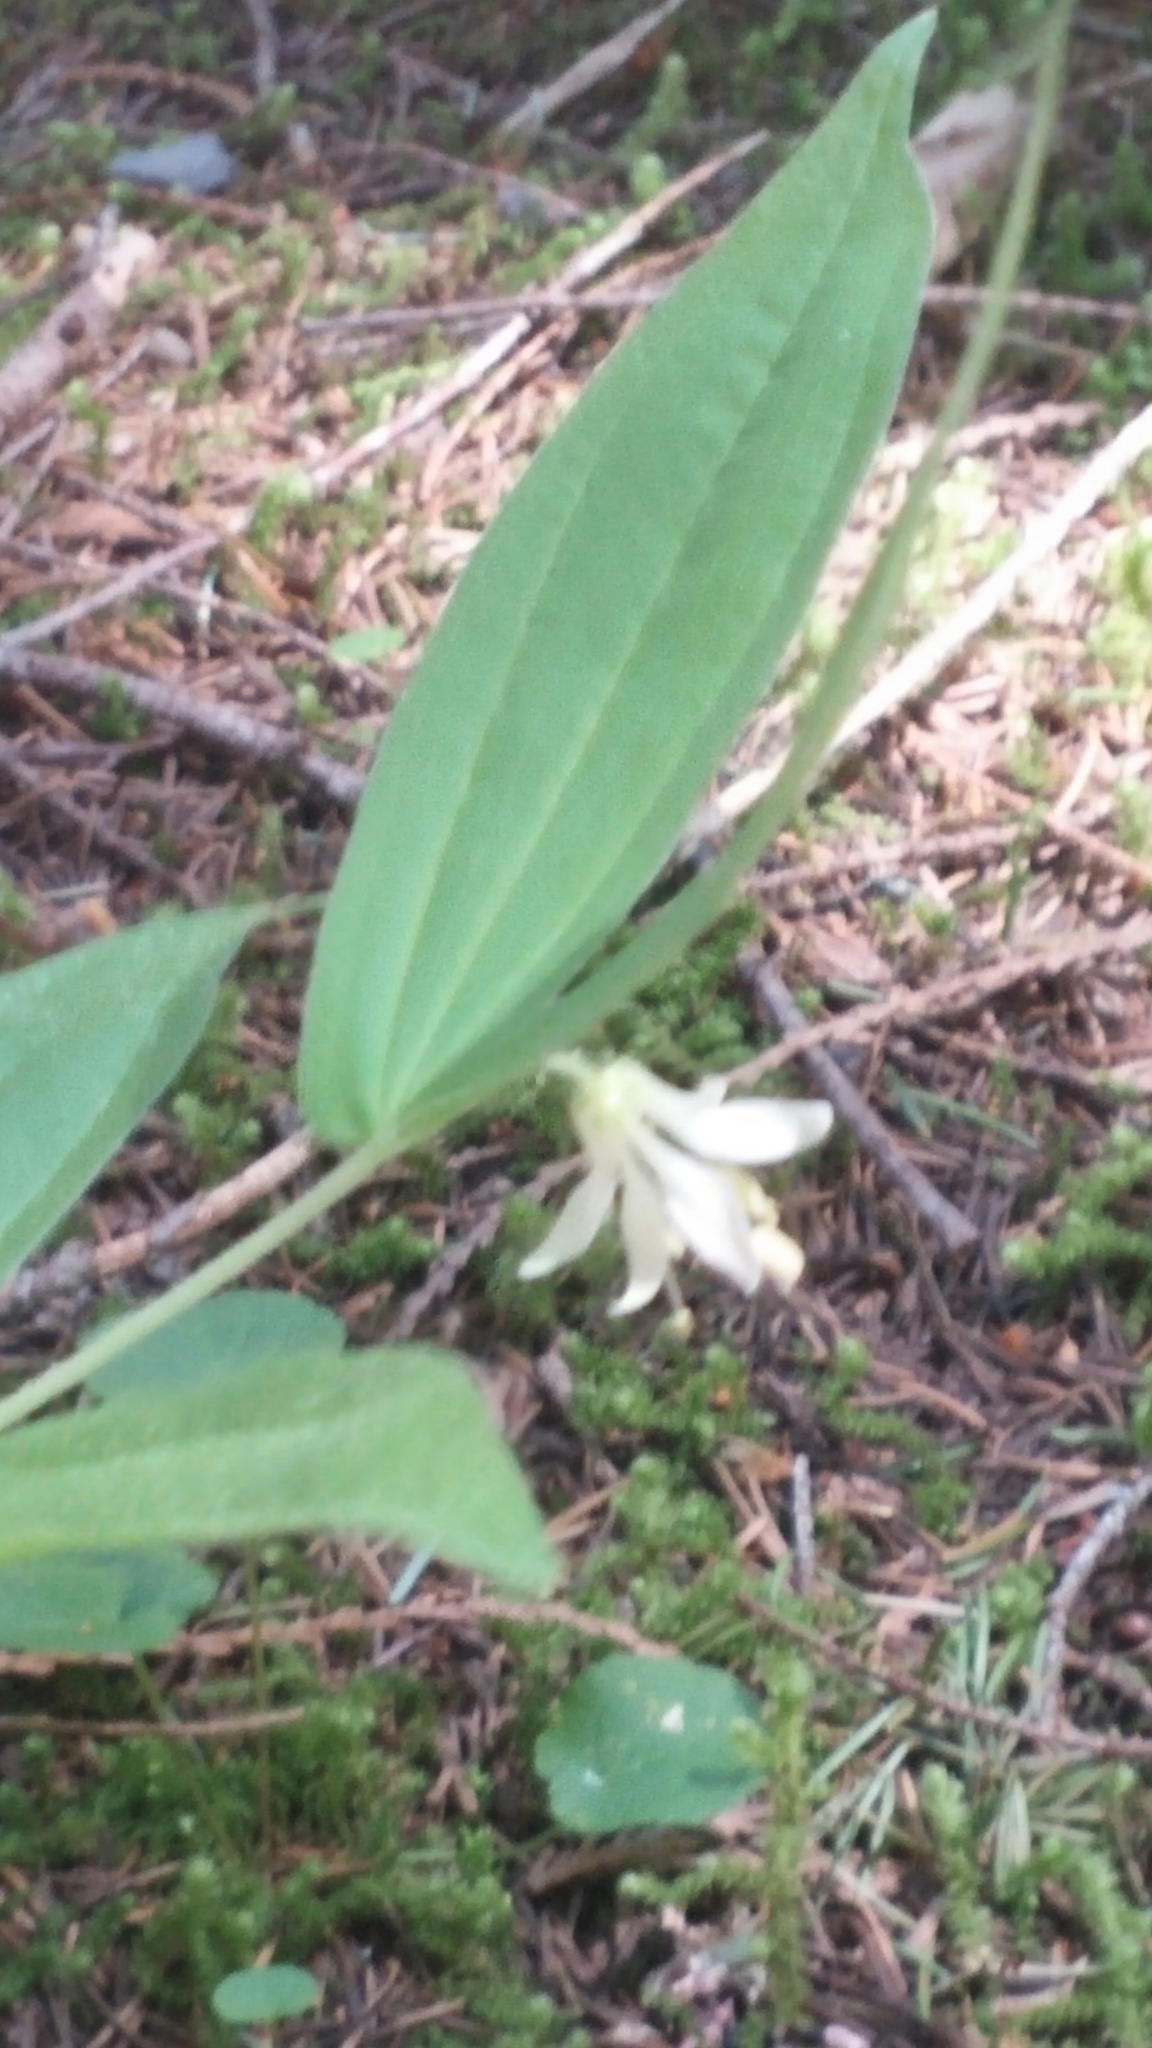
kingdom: Plantae
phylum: Tracheophyta
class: Liliopsida
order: Liliales
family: Liliaceae
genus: Prosartes
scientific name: Prosartes hookeri
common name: Fairy-bells
